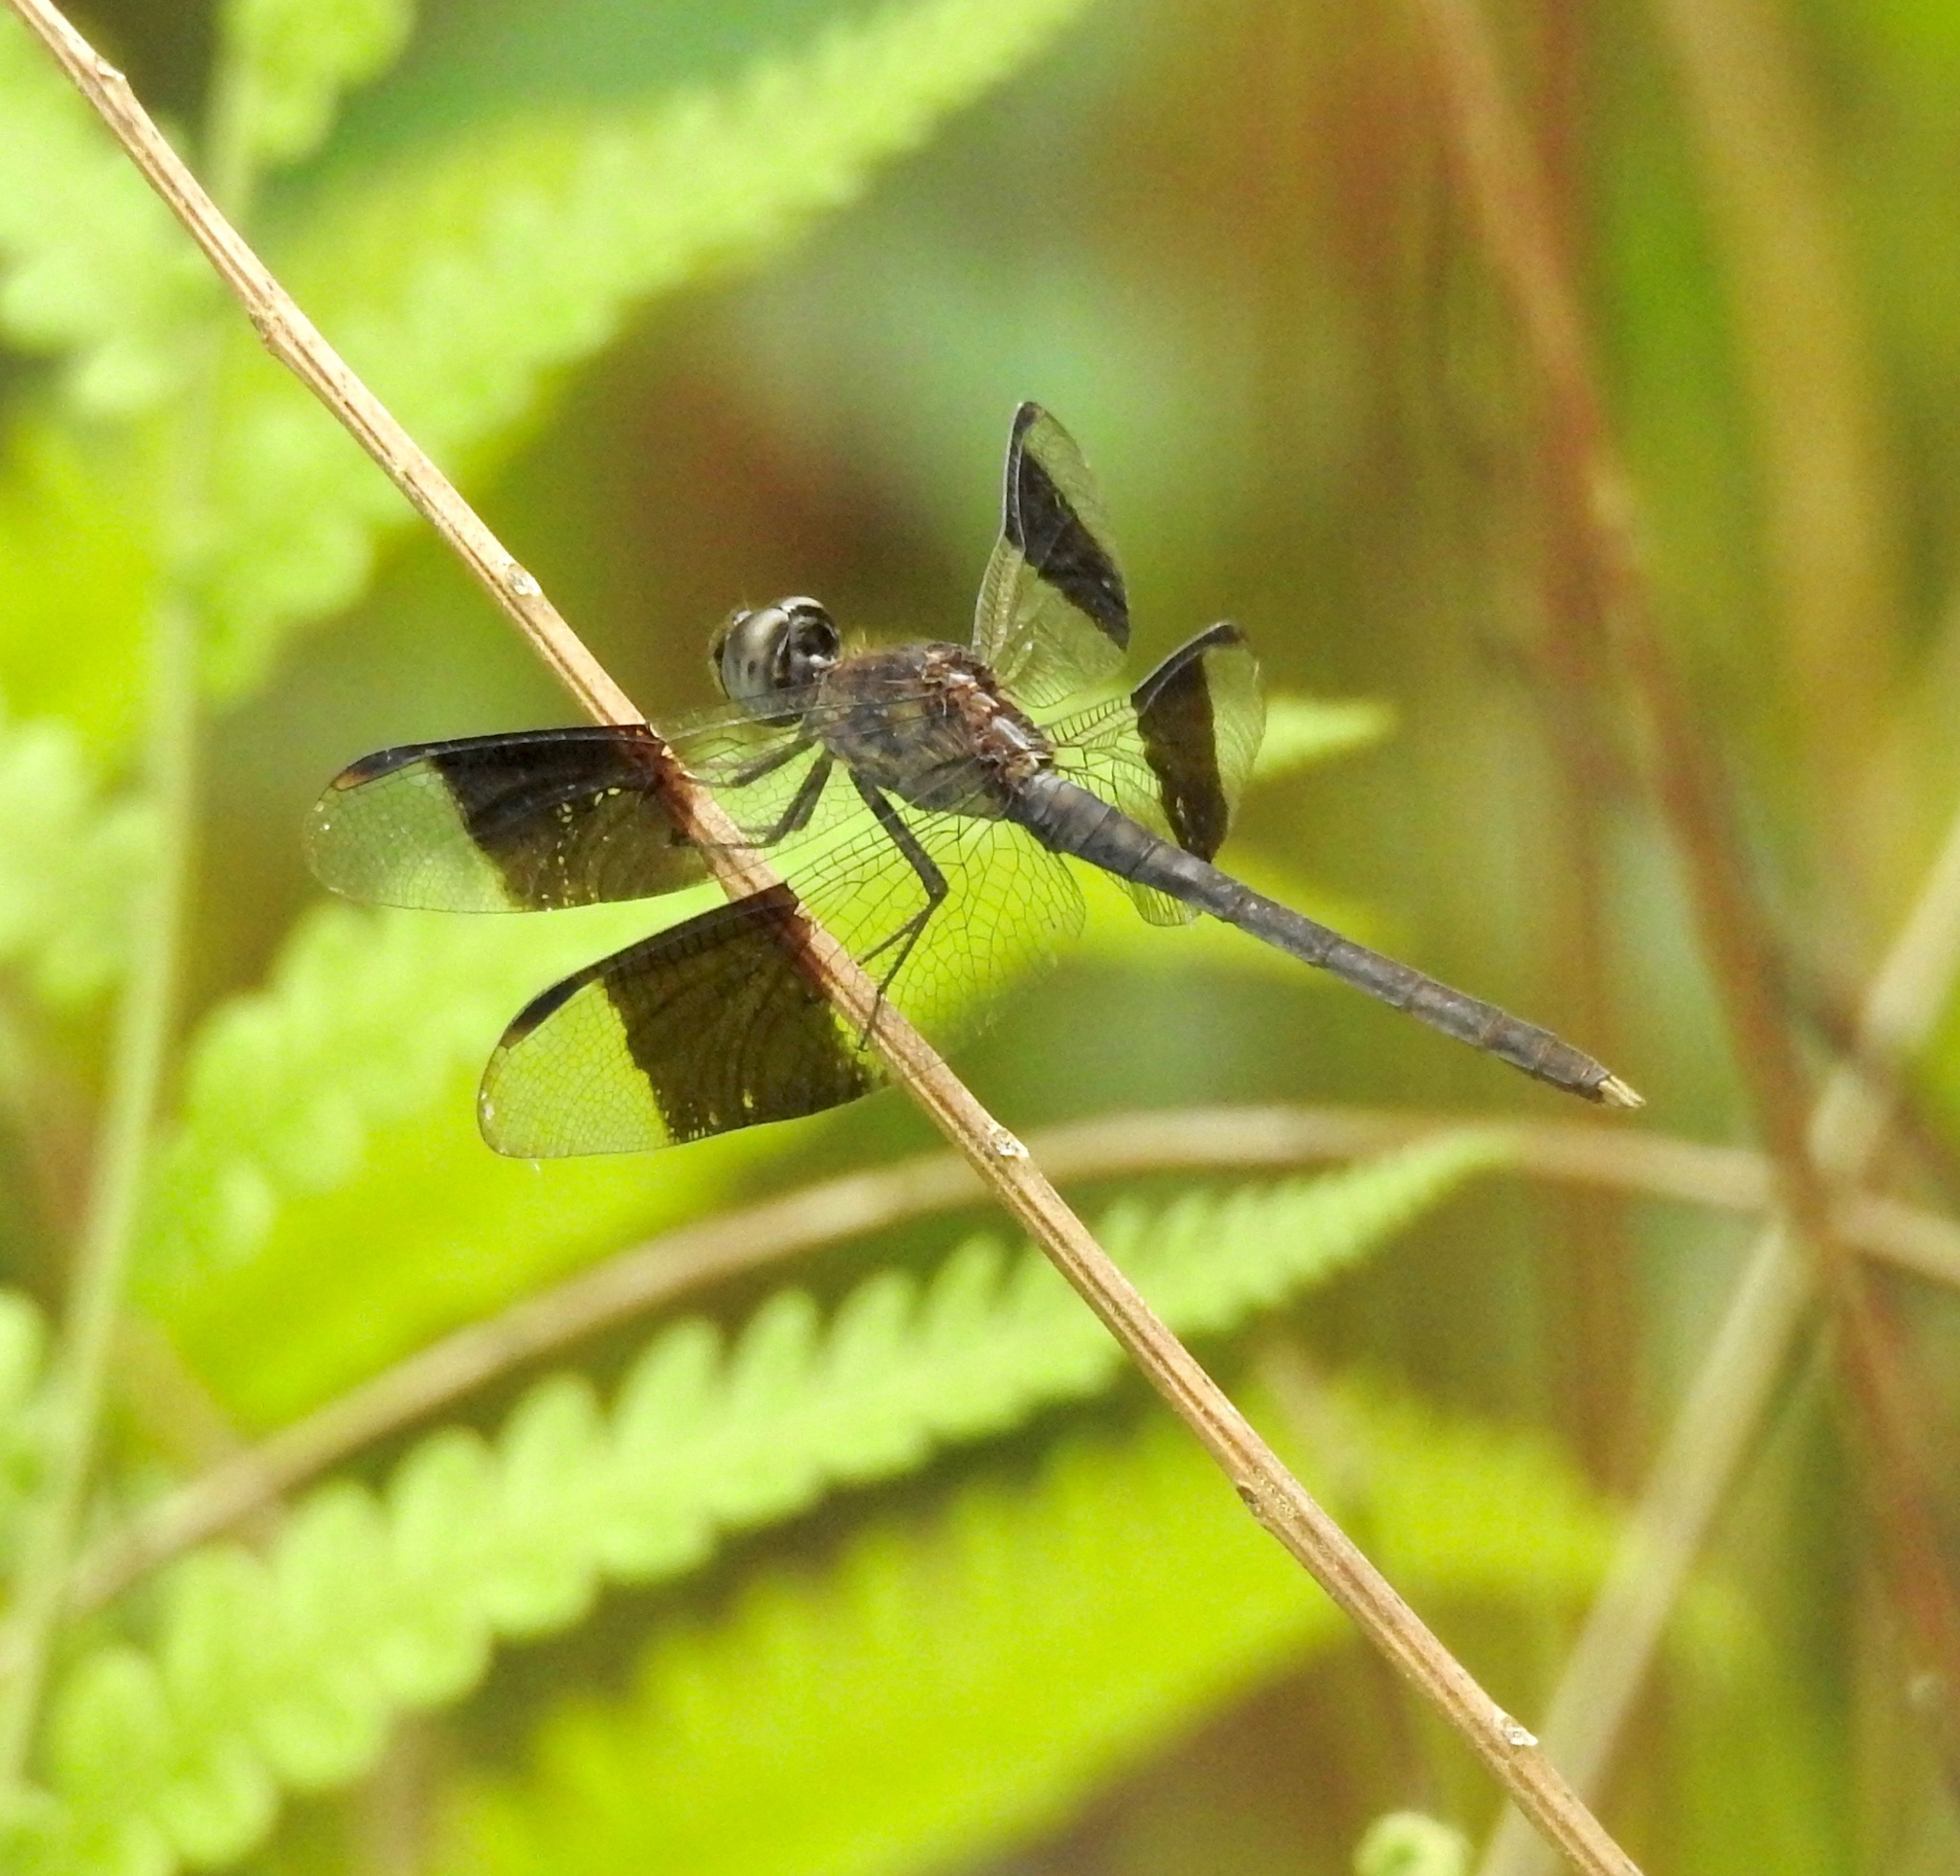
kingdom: Animalia
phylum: Arthropoda
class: Insecta
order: Odonata
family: Libellulidae
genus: Erythrodiplax
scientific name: Erythrodiplax umbrata
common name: Band-winged dragonlet
